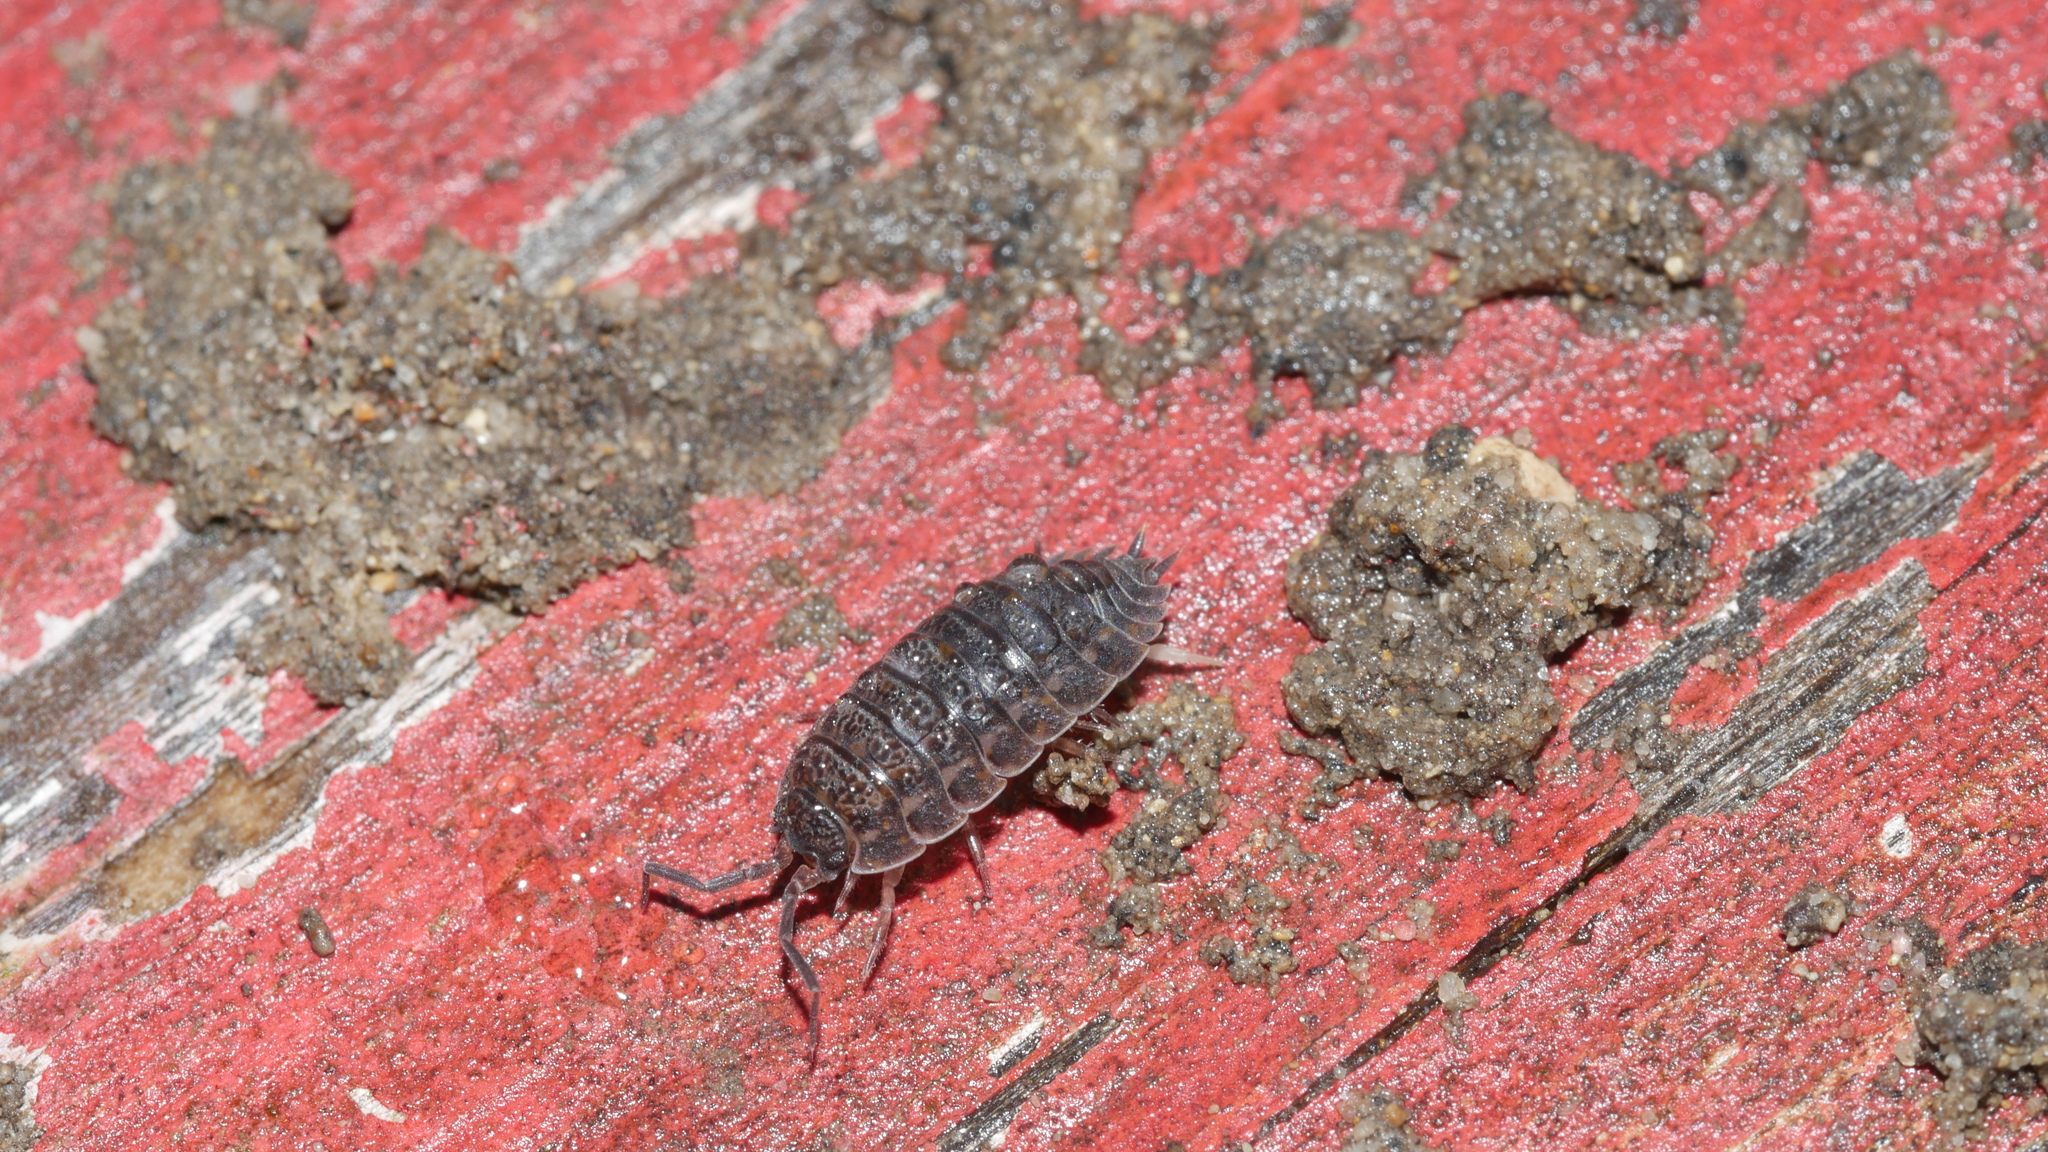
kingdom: Animalia
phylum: Arthropoda
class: Malacostraca
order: Isopoda
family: Trachelipodidae
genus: Trachelipus
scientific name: Trachelipus rathkii
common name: Isopod
